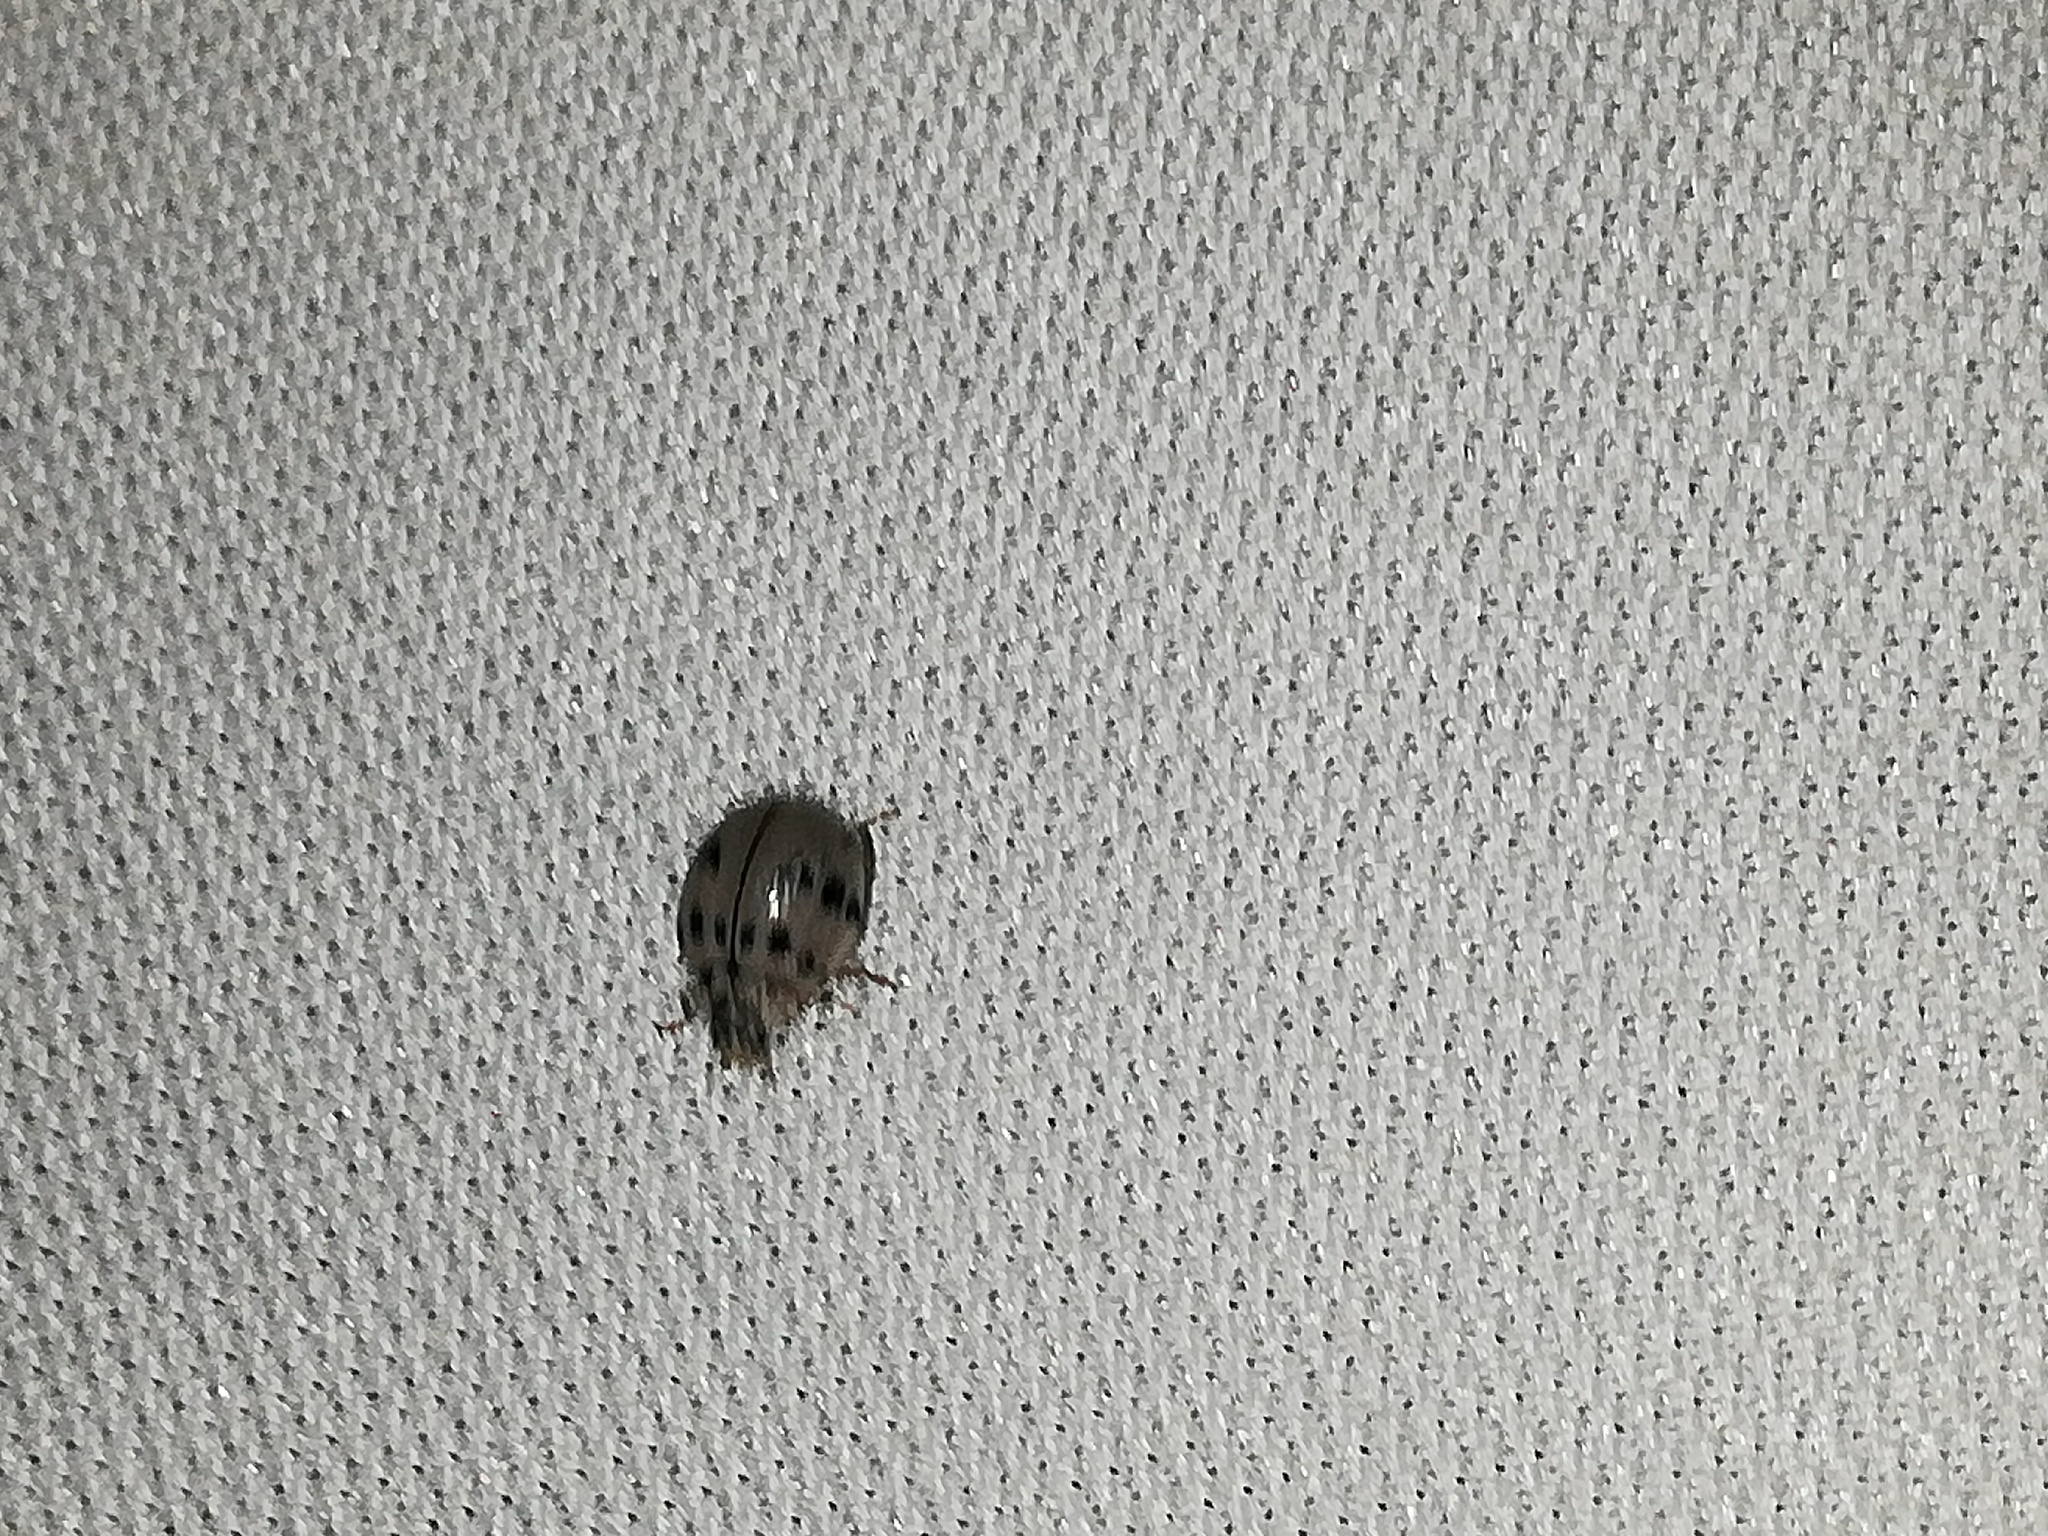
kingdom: Animalia
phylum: Arthropoda
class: Insecta
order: Coleoptera
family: Coccinellidae
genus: Olla
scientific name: Olla v-nigrum
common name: Ashy gray lady beetle
